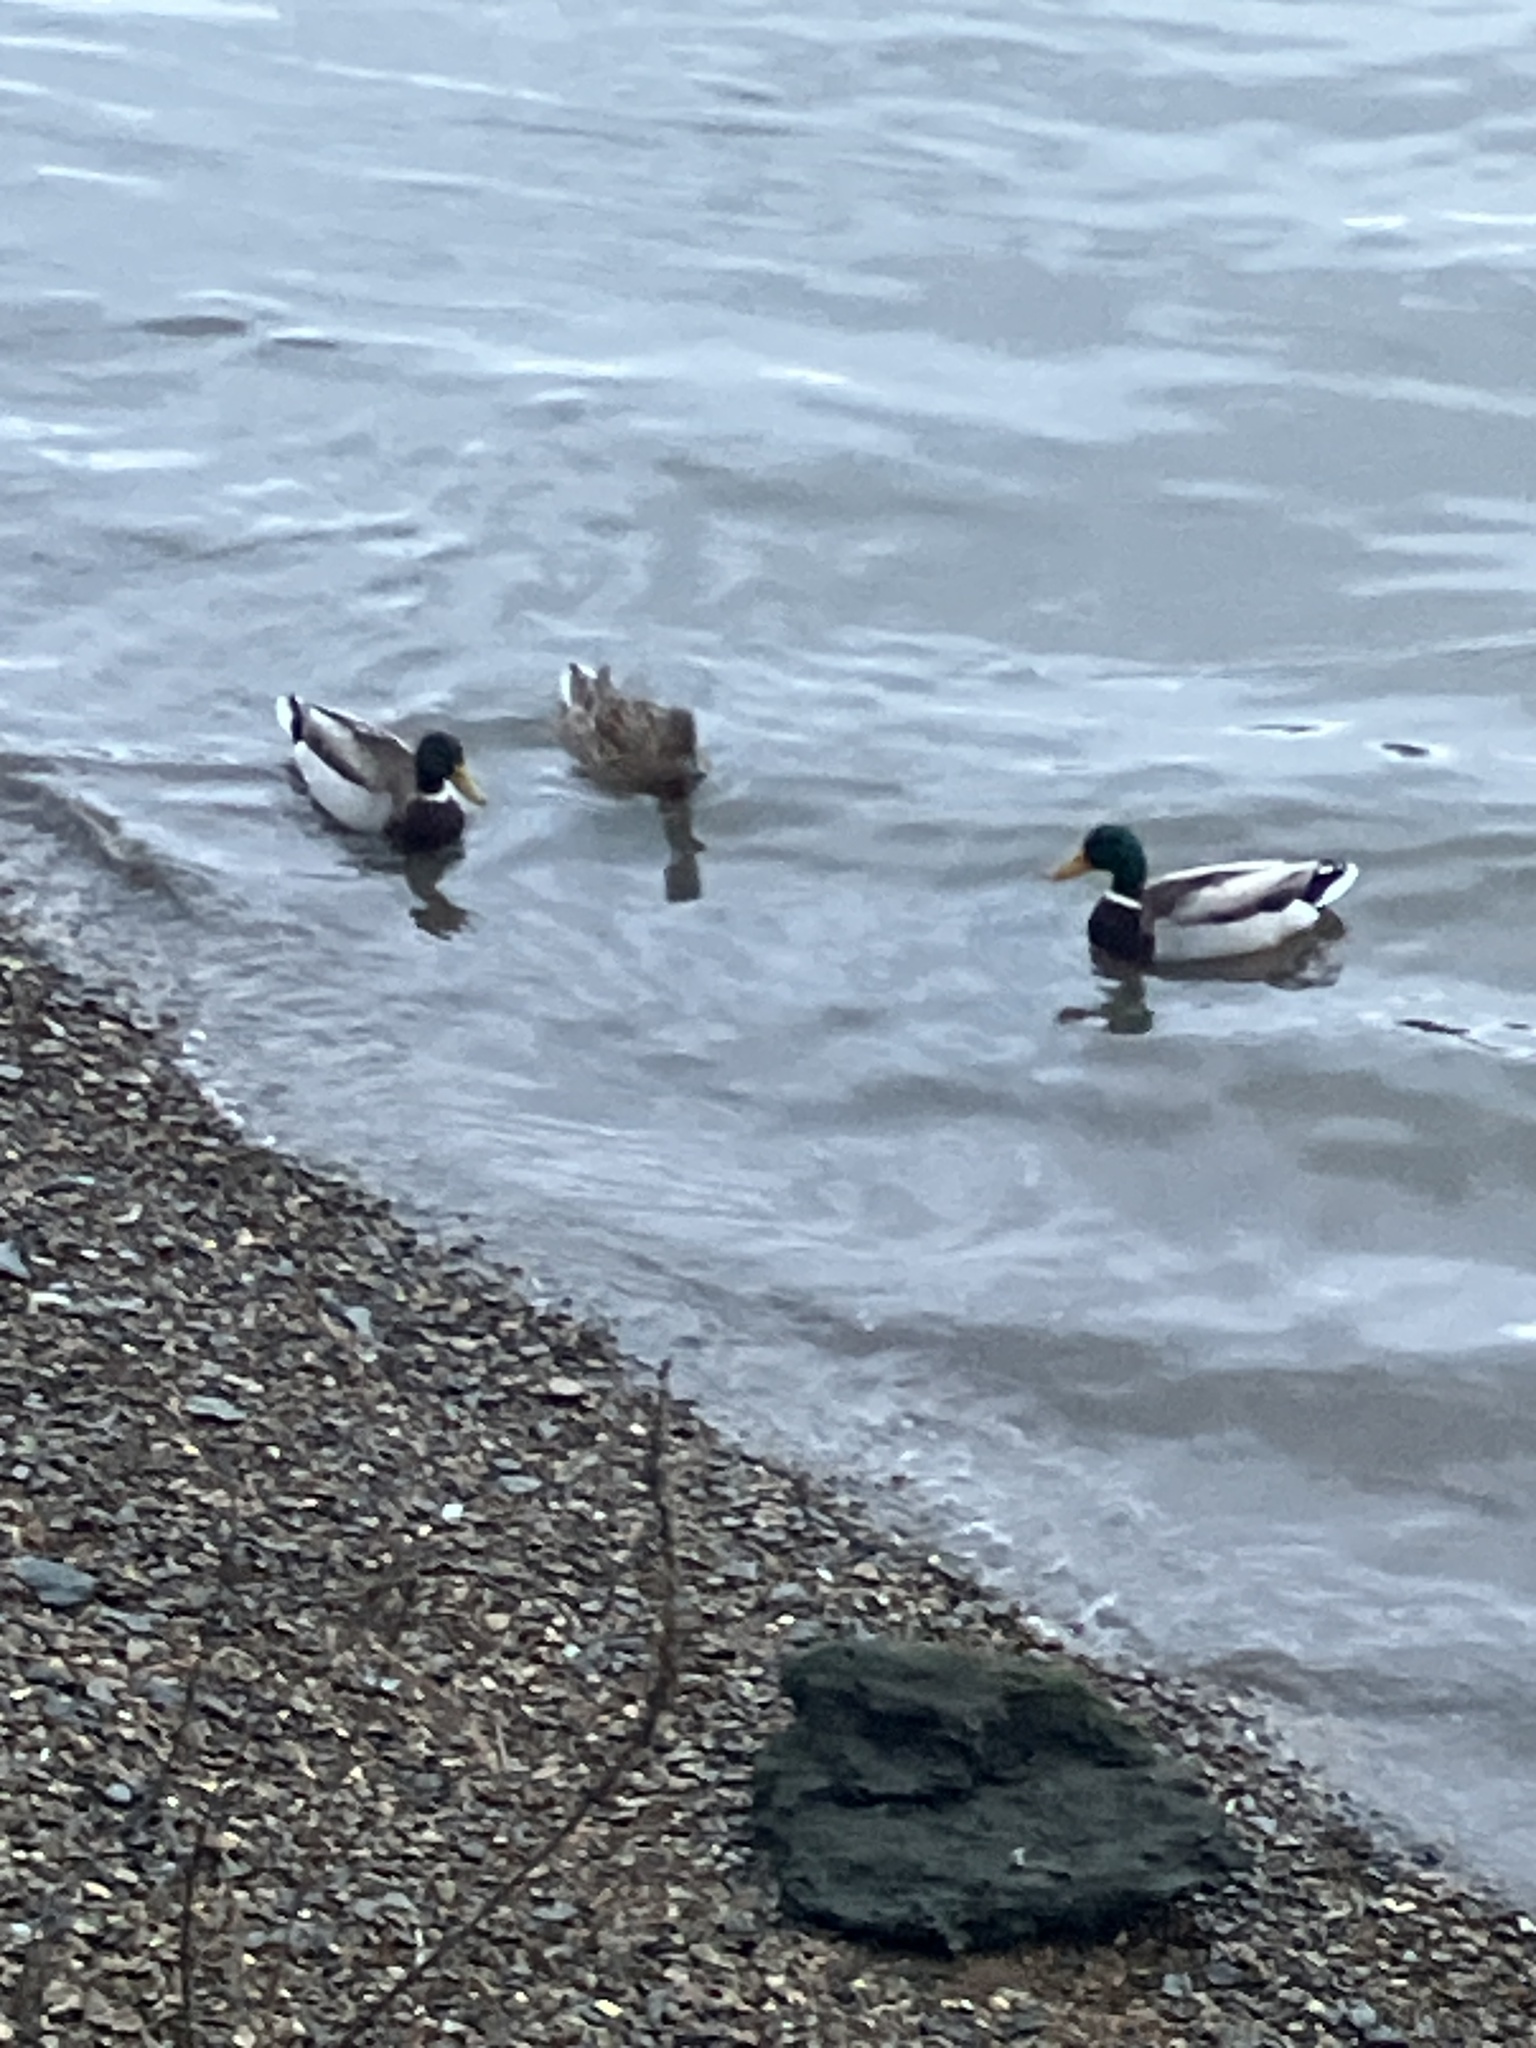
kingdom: Animalia
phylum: Chordata
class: Aves
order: Anseriformes
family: Anatidae
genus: Anas
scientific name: Anas platyrhynchos
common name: Mallard
